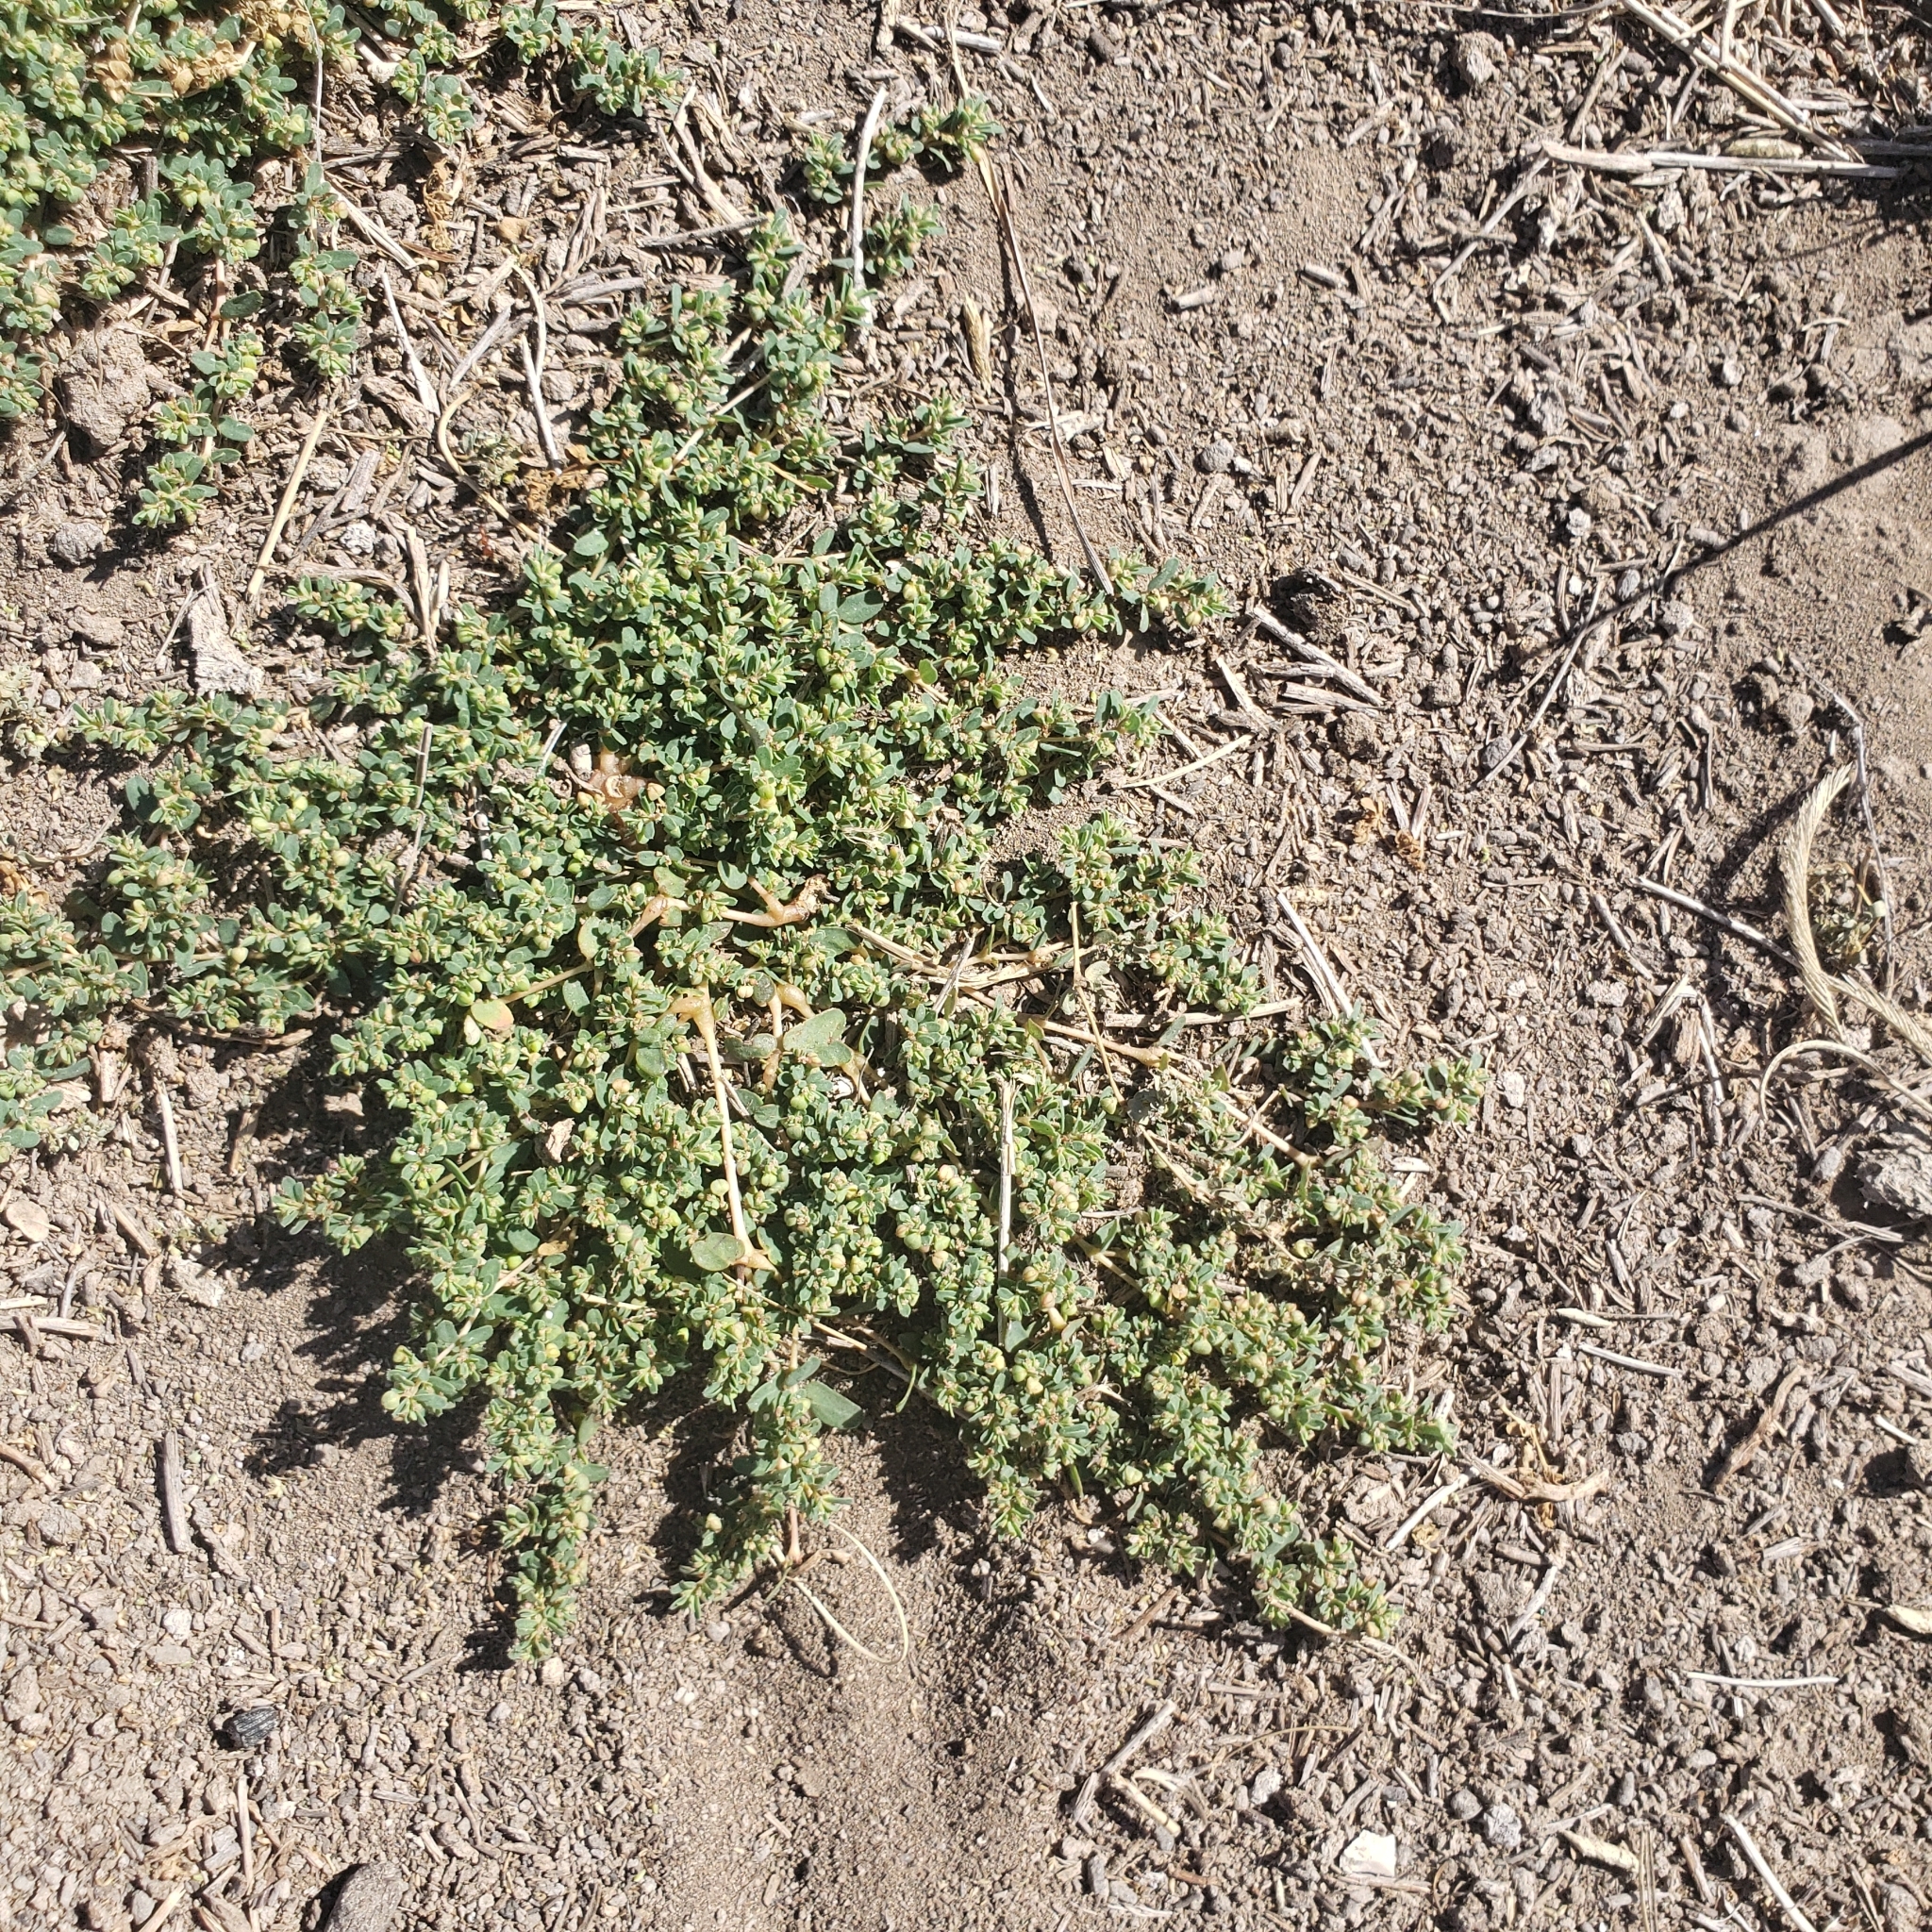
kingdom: Plantae
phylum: Tracheophyta
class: Magnoliopsida
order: Malpighiales
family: Euphorbiaceae
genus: Euphorbia
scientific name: Euphorbia glyptosperma
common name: Corrugate-seeded spurge
